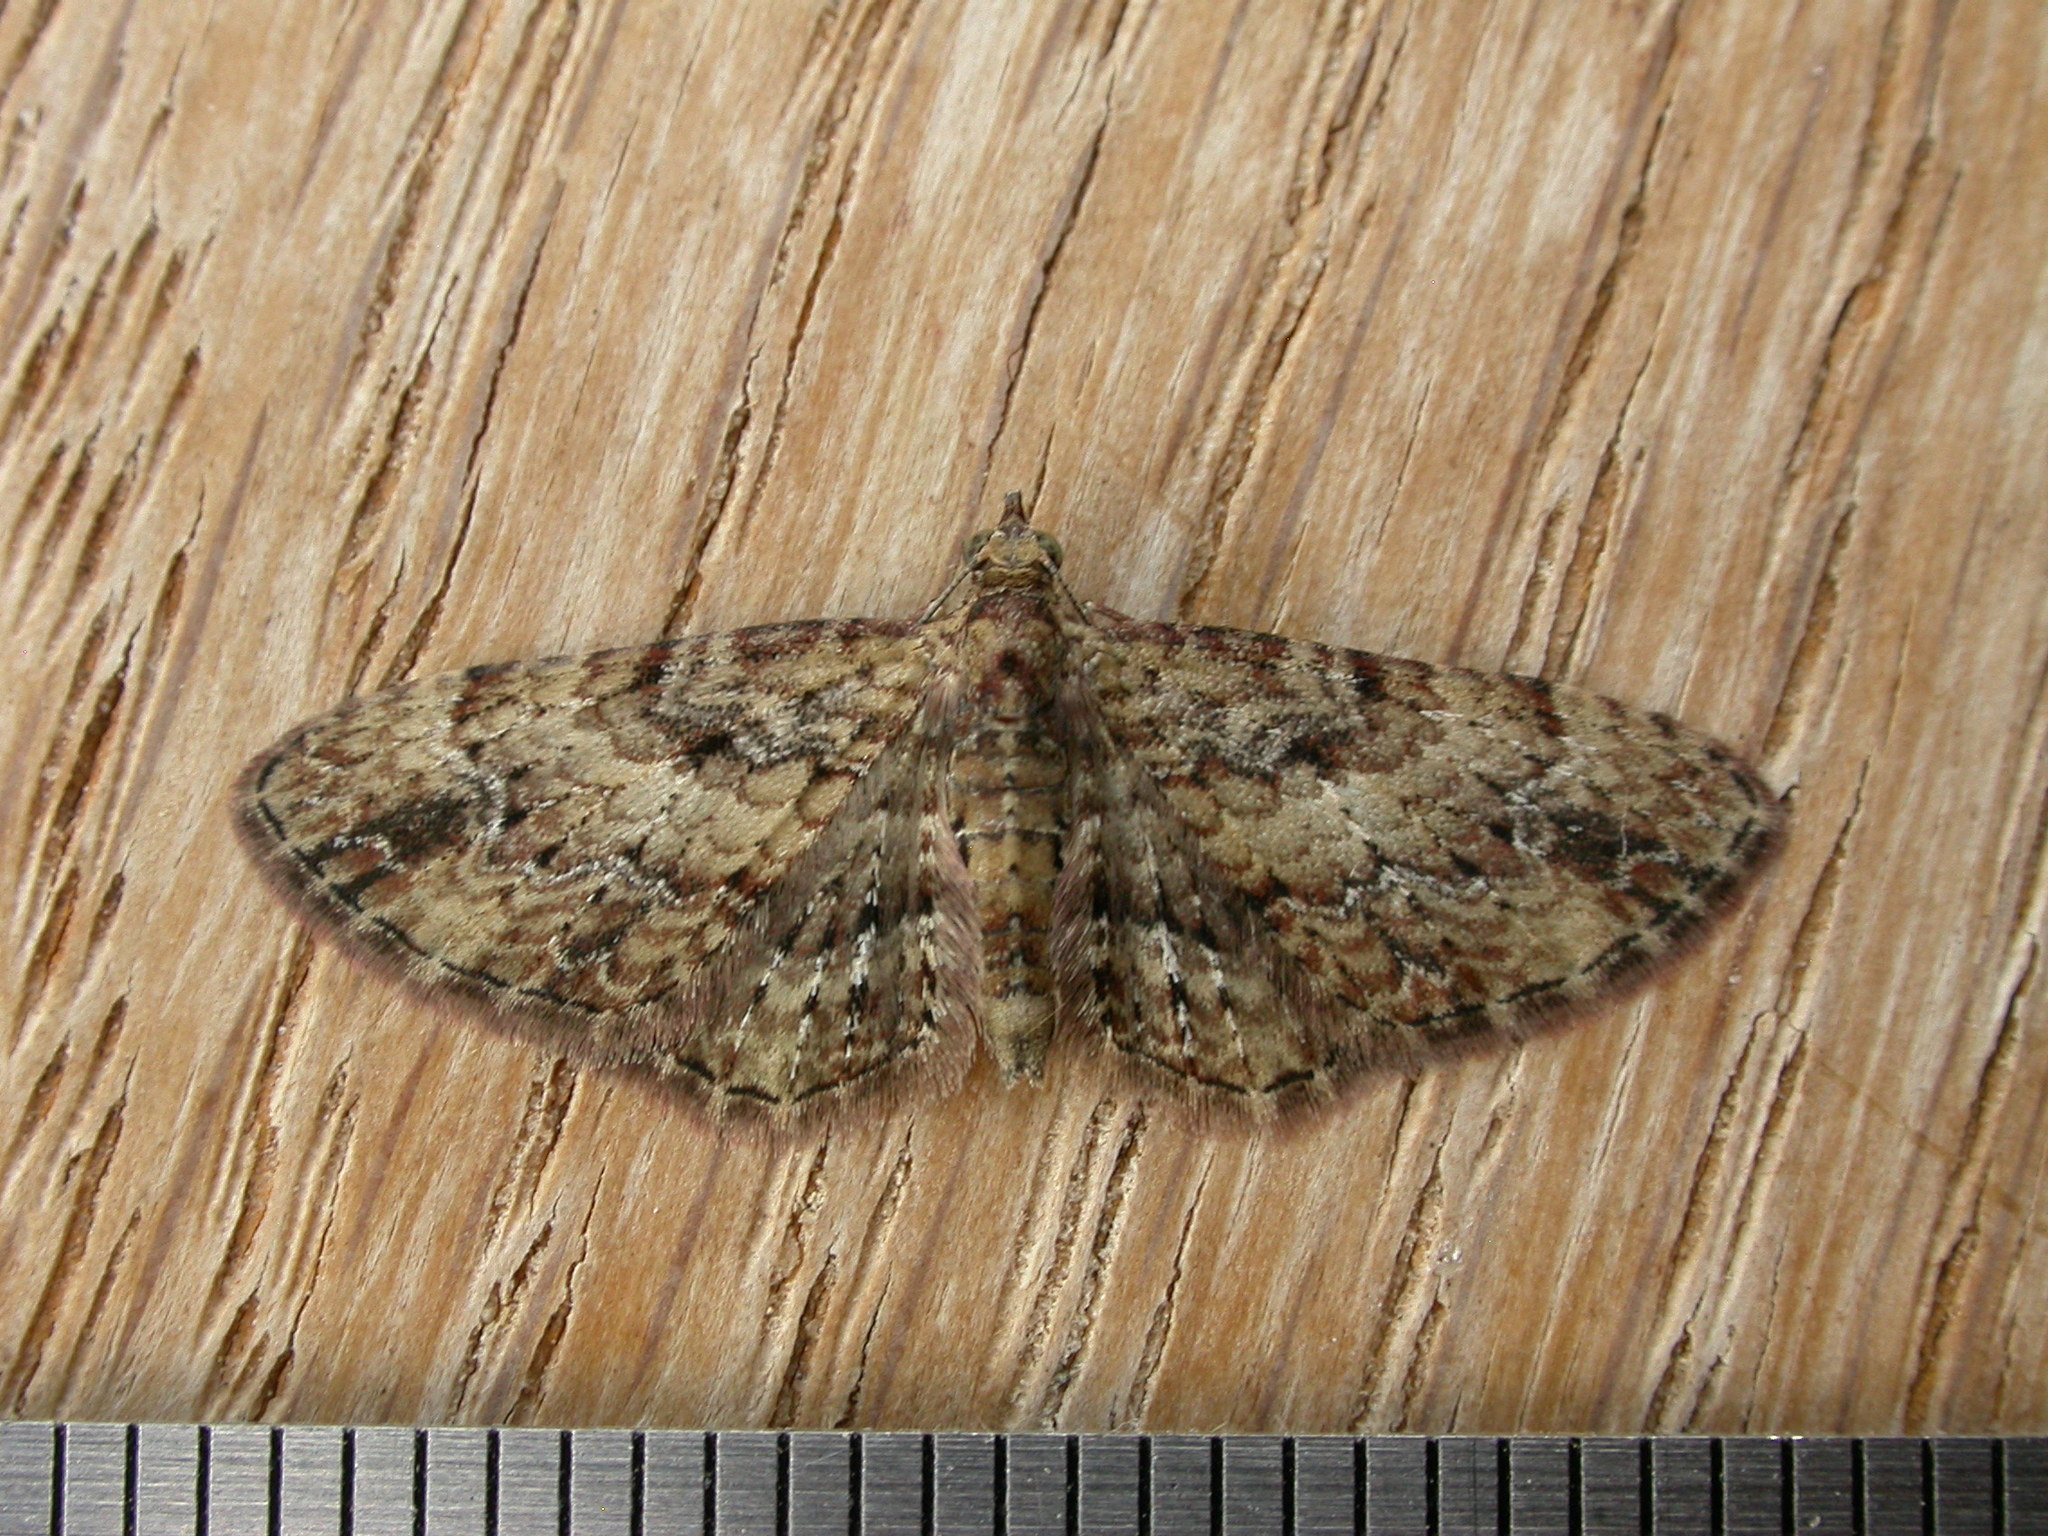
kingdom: Animalia
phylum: Arthropoda
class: Insecta
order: Lepidoptera
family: Geometridae
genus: Chloroclystis
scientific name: Chloroclystis approximata
